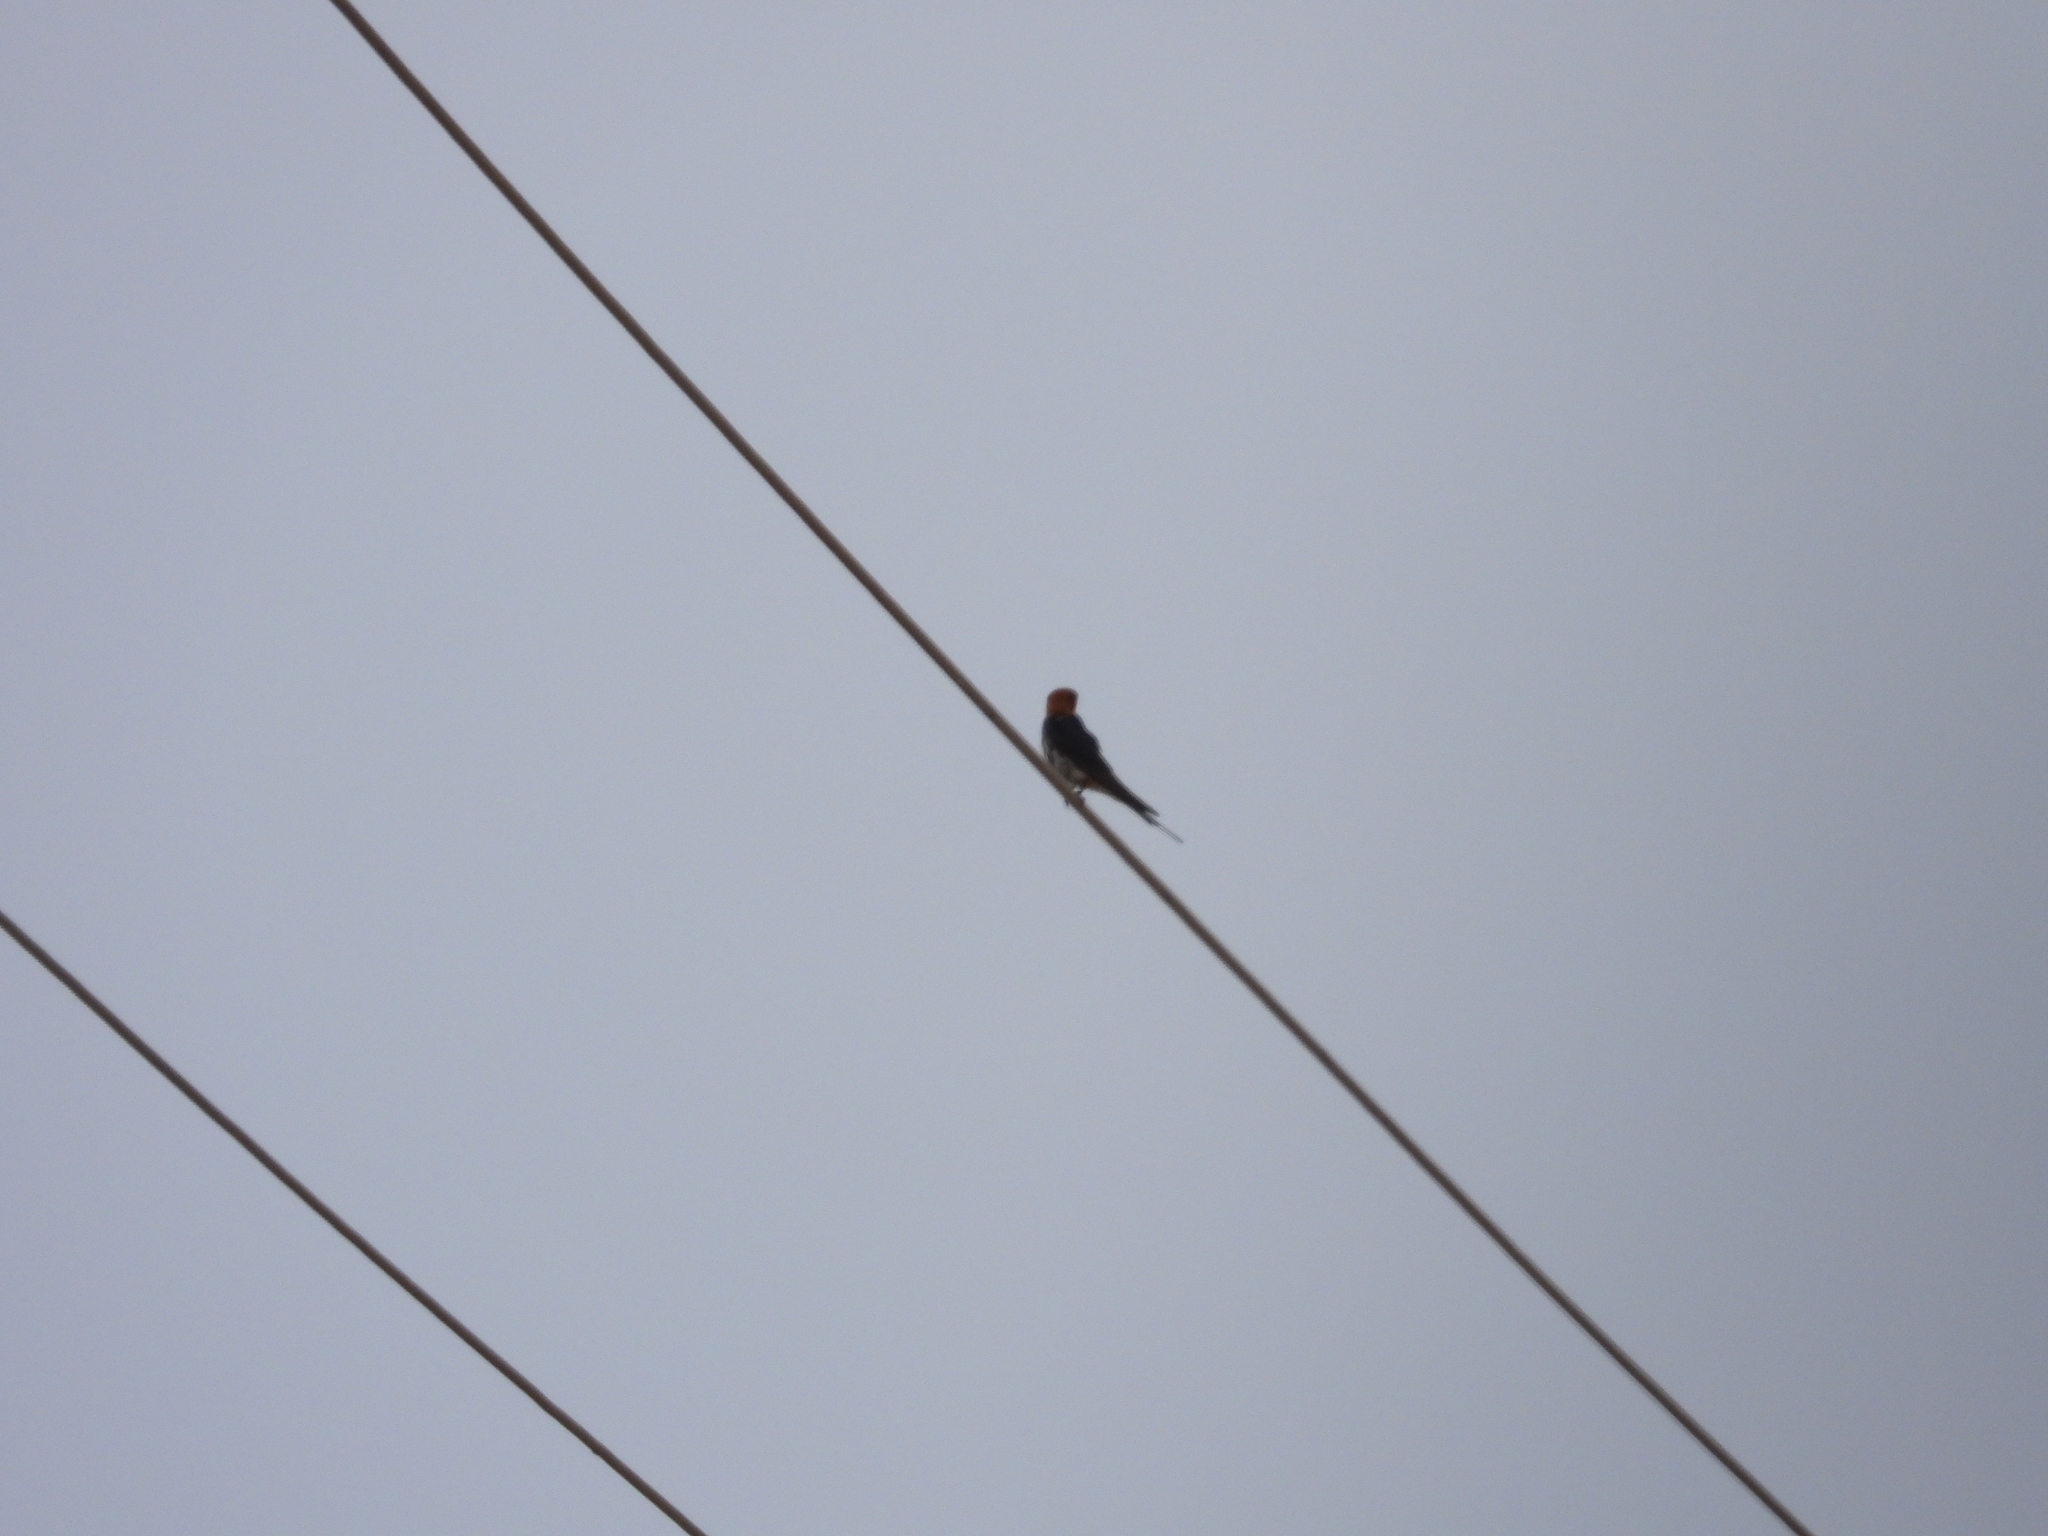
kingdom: Animalia
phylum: Chordata
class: Aves
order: Passeriformes
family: Hirundinidae
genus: Hirundo
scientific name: Hirundo smithii
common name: Wire-tailed swallow
